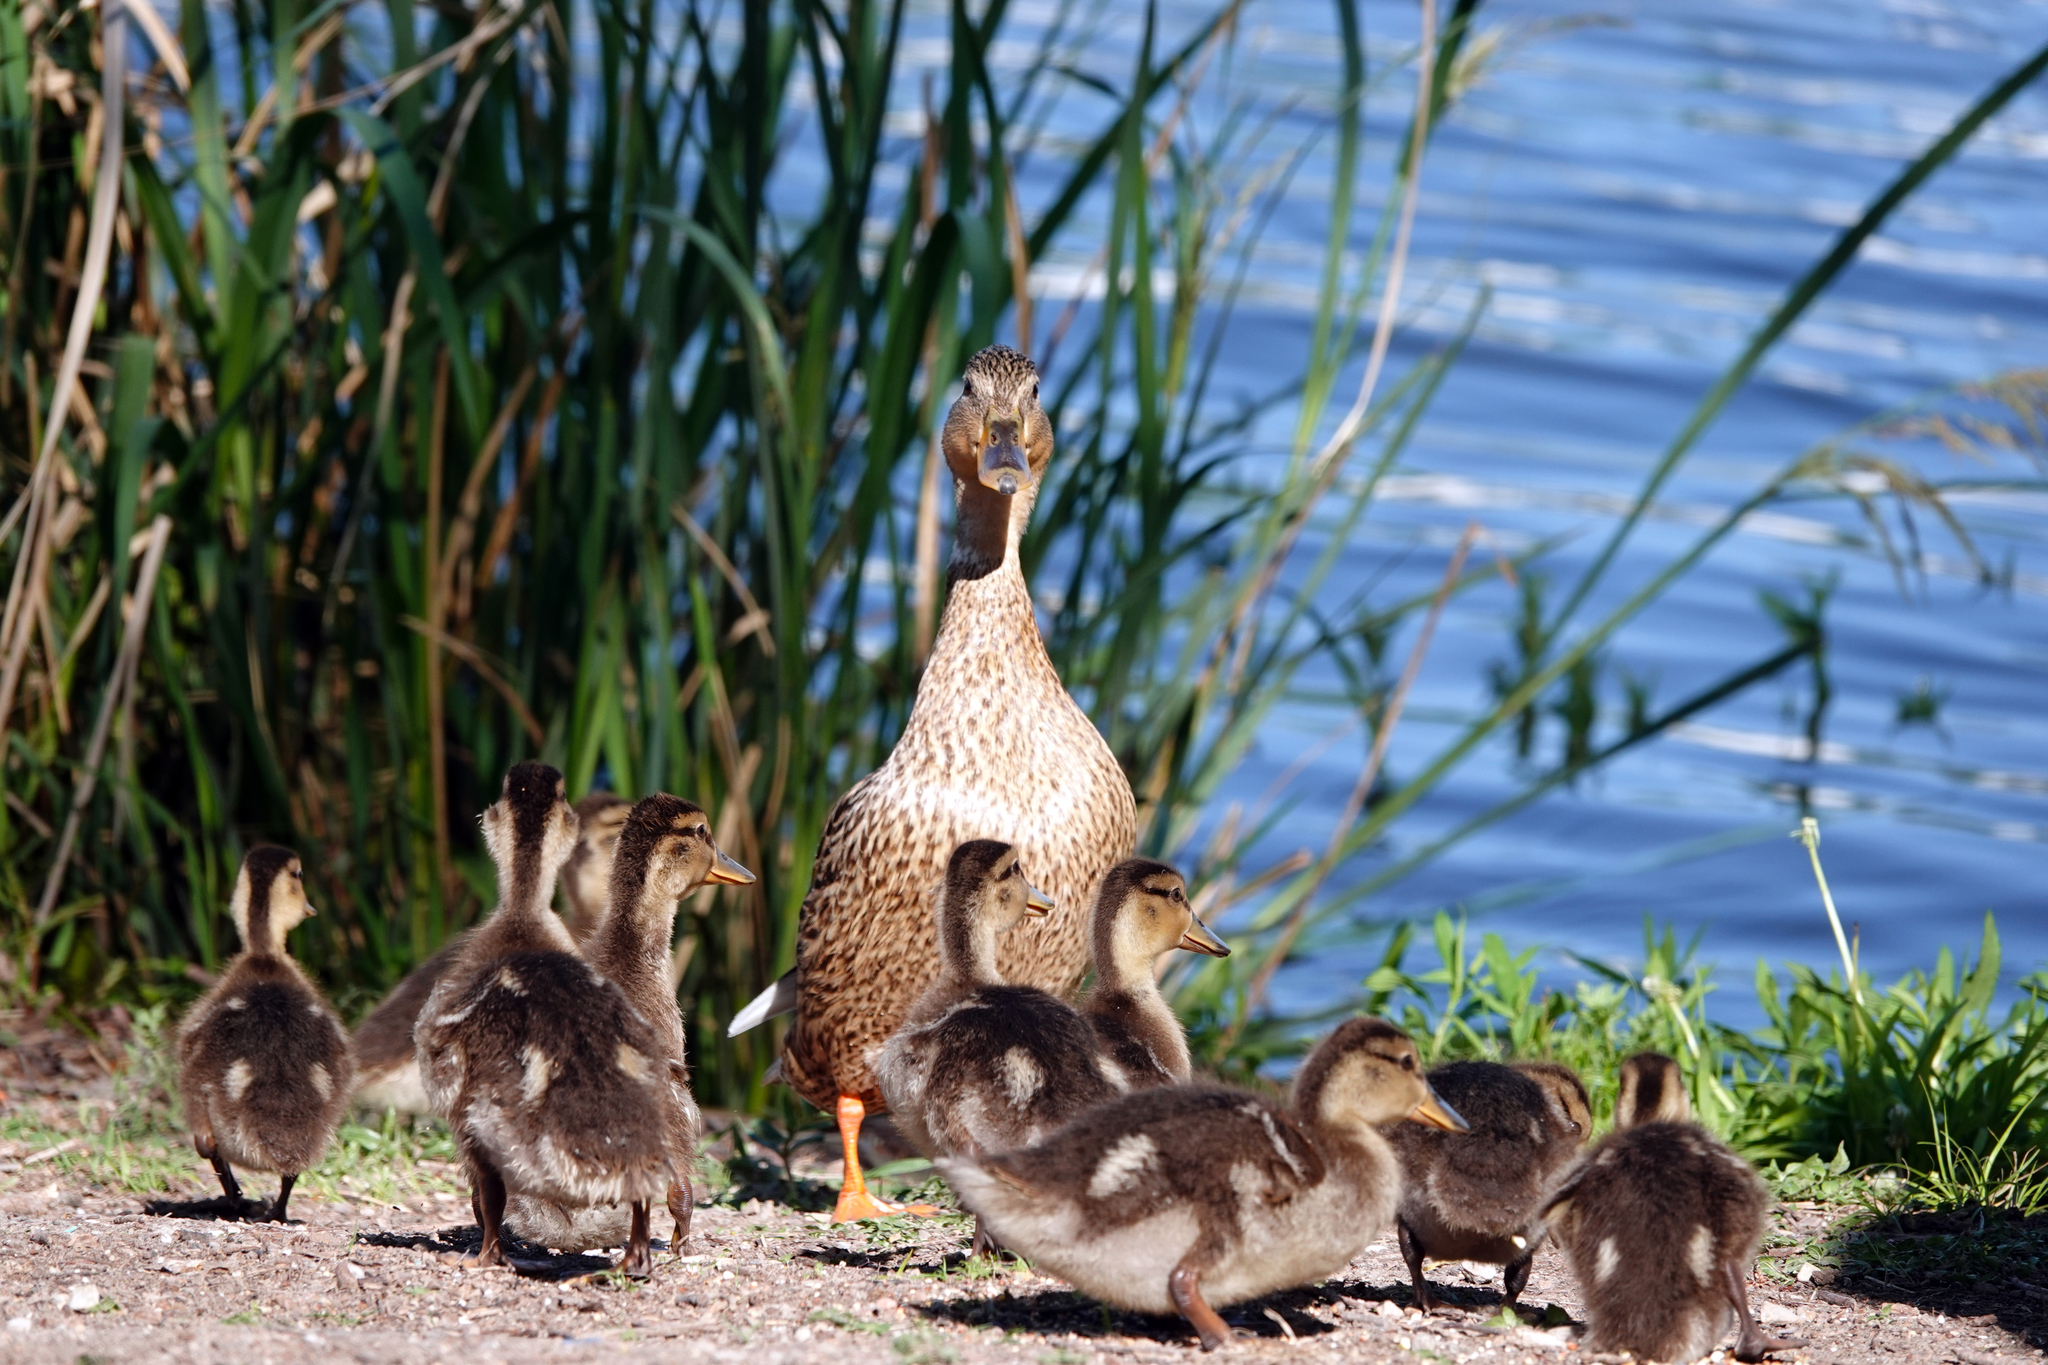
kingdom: Animalia
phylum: Chordata
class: Aves
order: Anseriformes
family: Anatidae
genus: Anas
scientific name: Anas platyrhynchos
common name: Mallard
